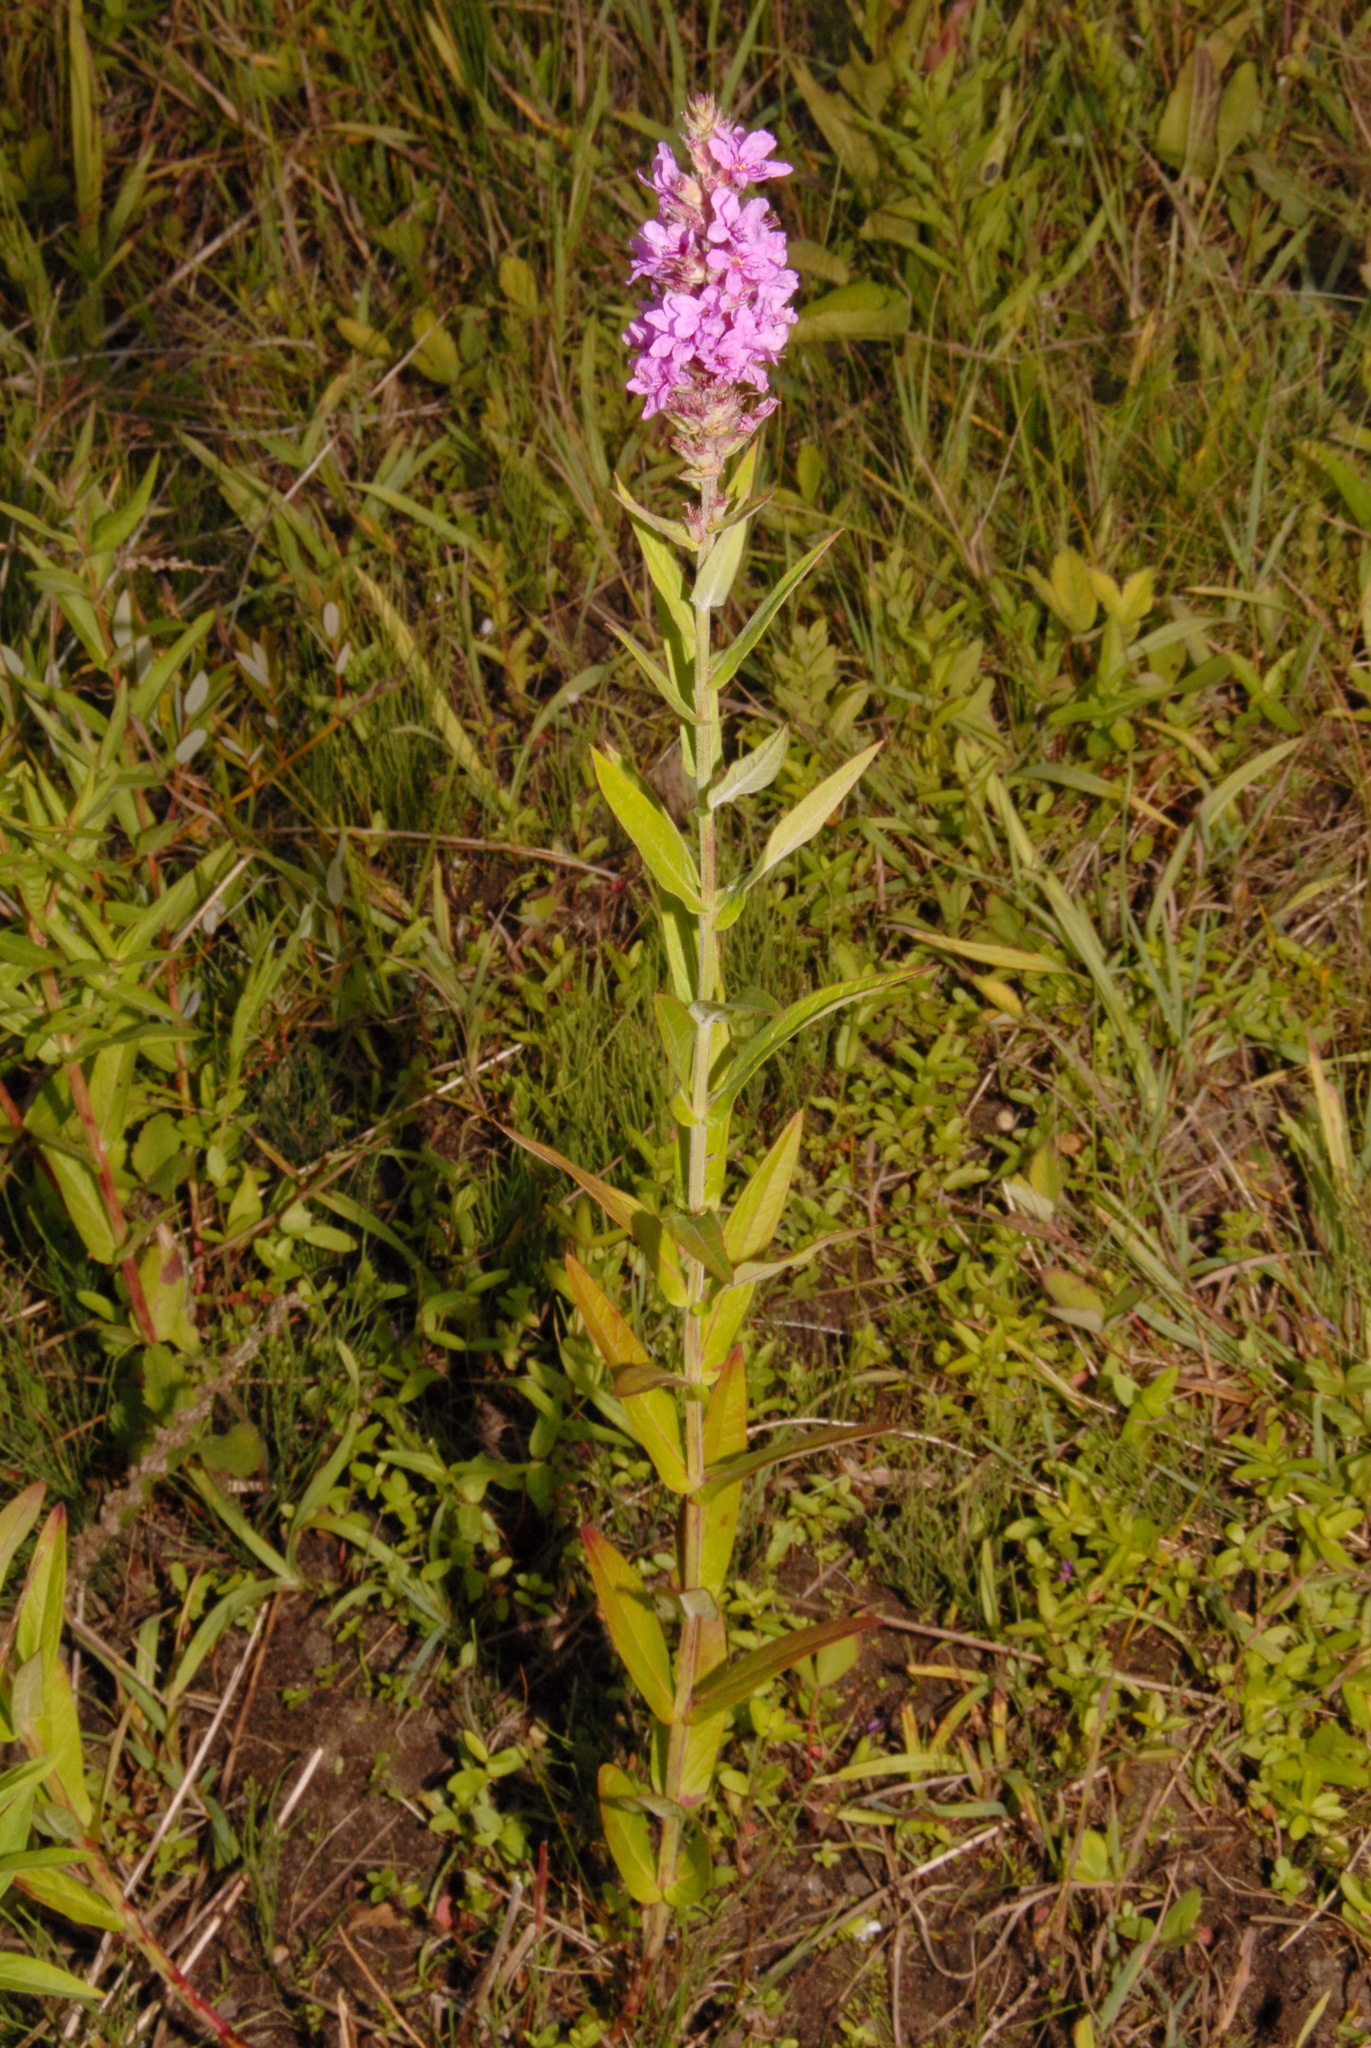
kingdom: Plantae
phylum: Tracheophyta
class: Magnoliopsida
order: Myrtales
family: Lythraceae
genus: Lythrum
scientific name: Lythrum salicaria
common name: Purple loosestrife
